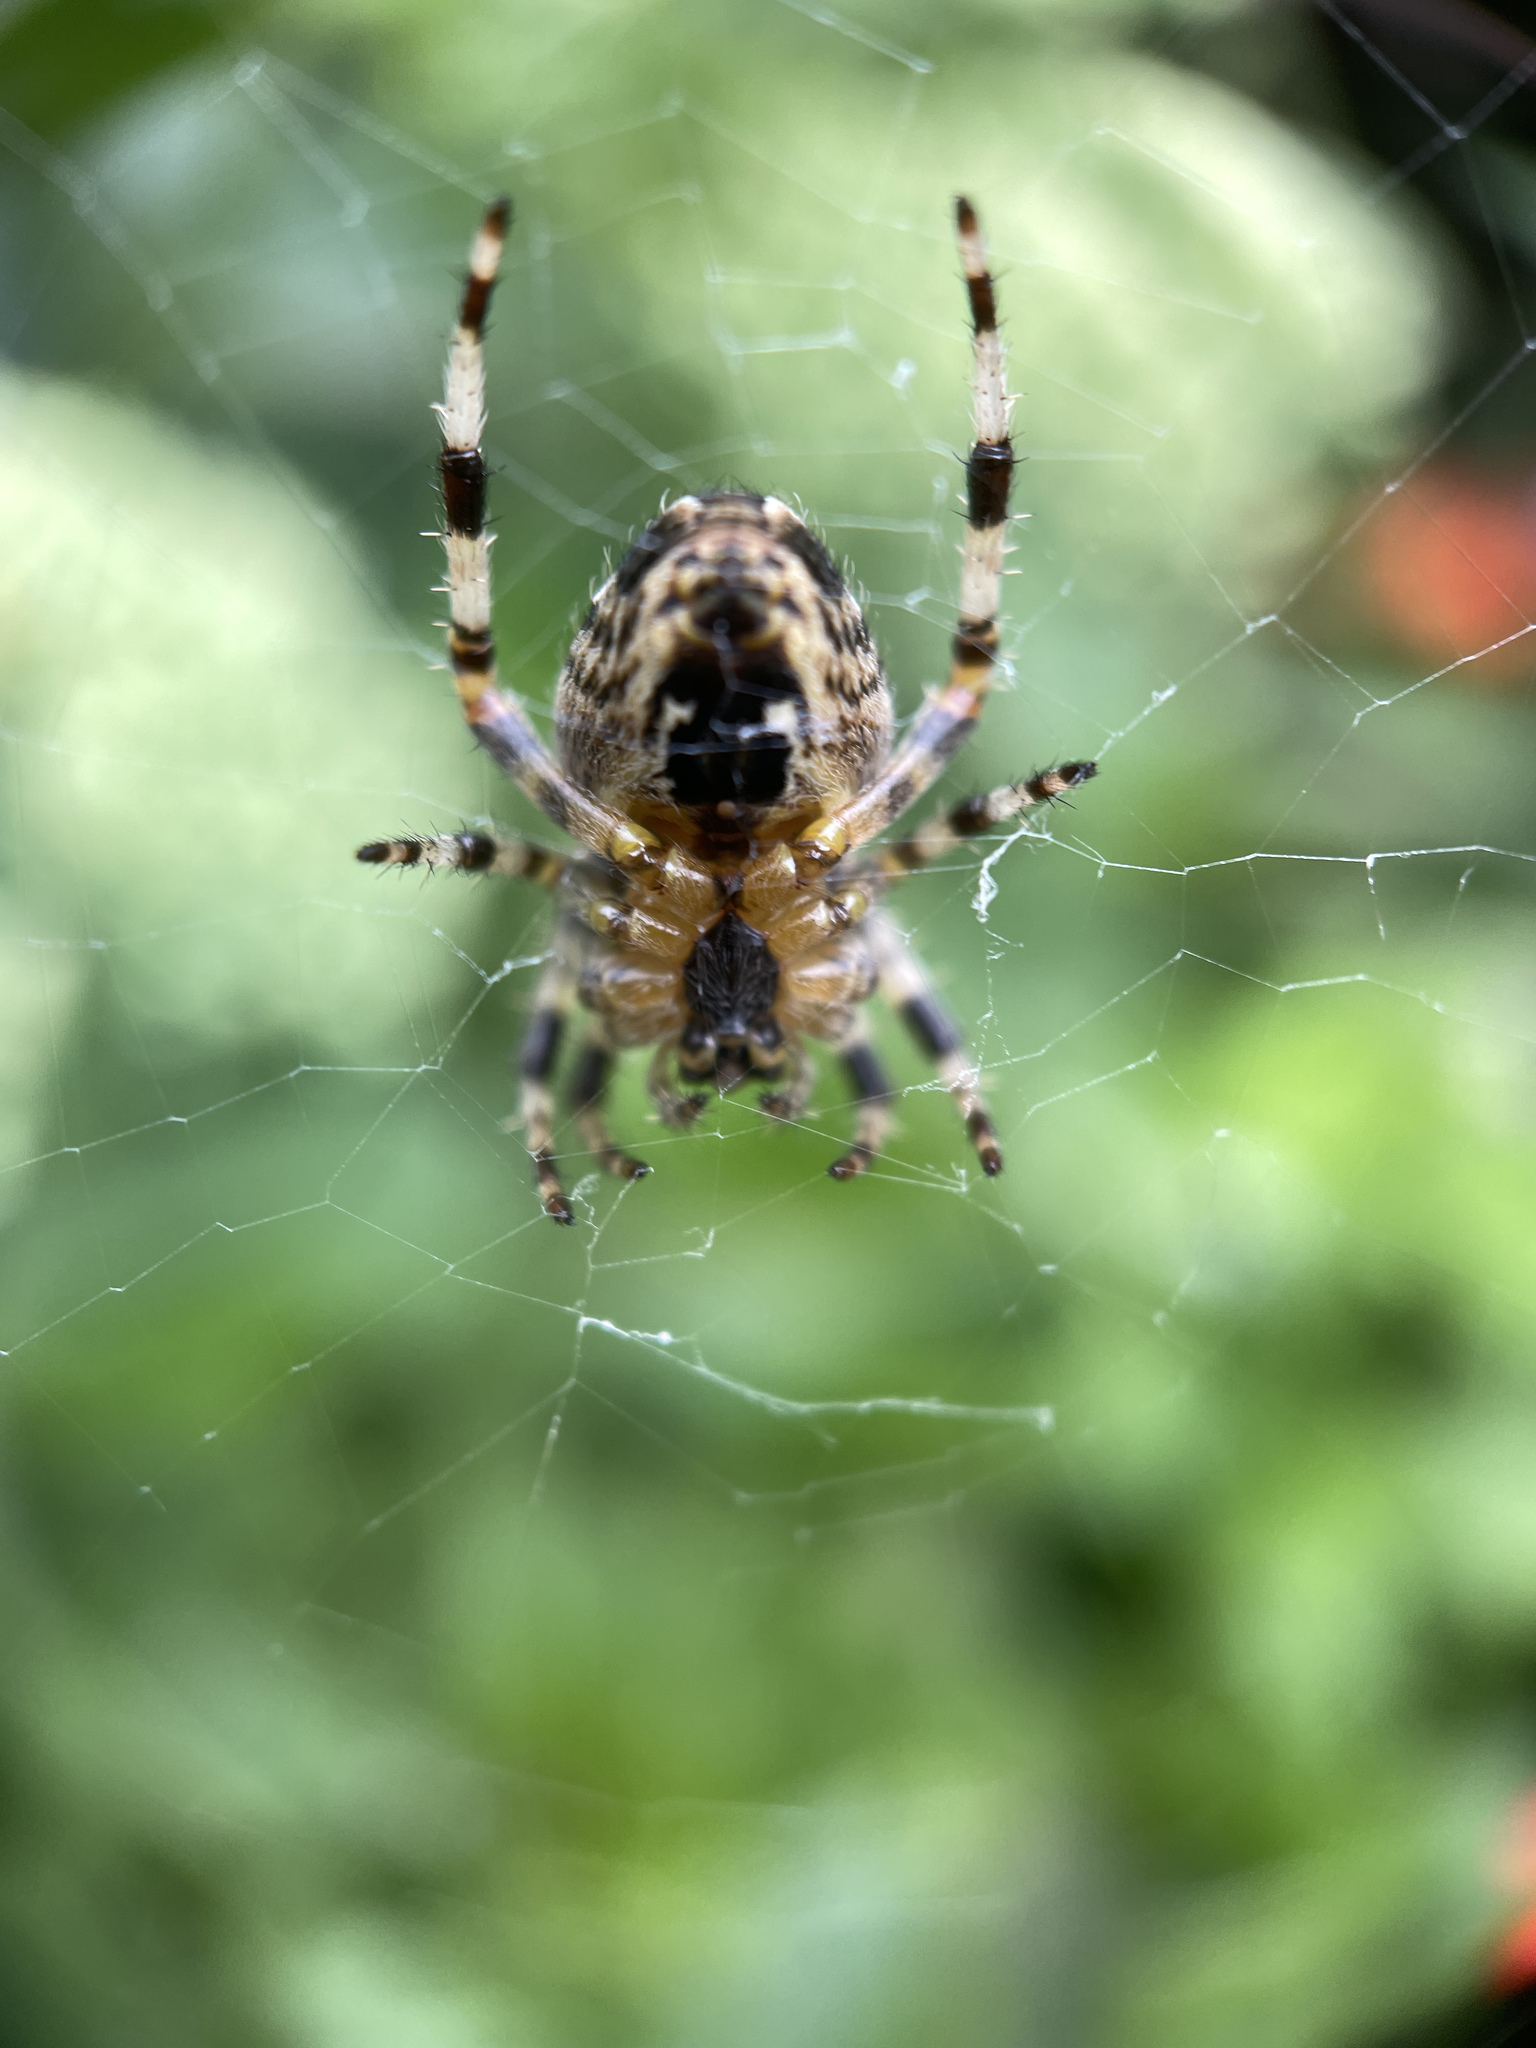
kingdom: Animalia
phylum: Arthropoda
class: Arachnida
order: Araneae
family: Araneidae
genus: Araneus
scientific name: Araneus diadematus
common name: Cross orbweaver
